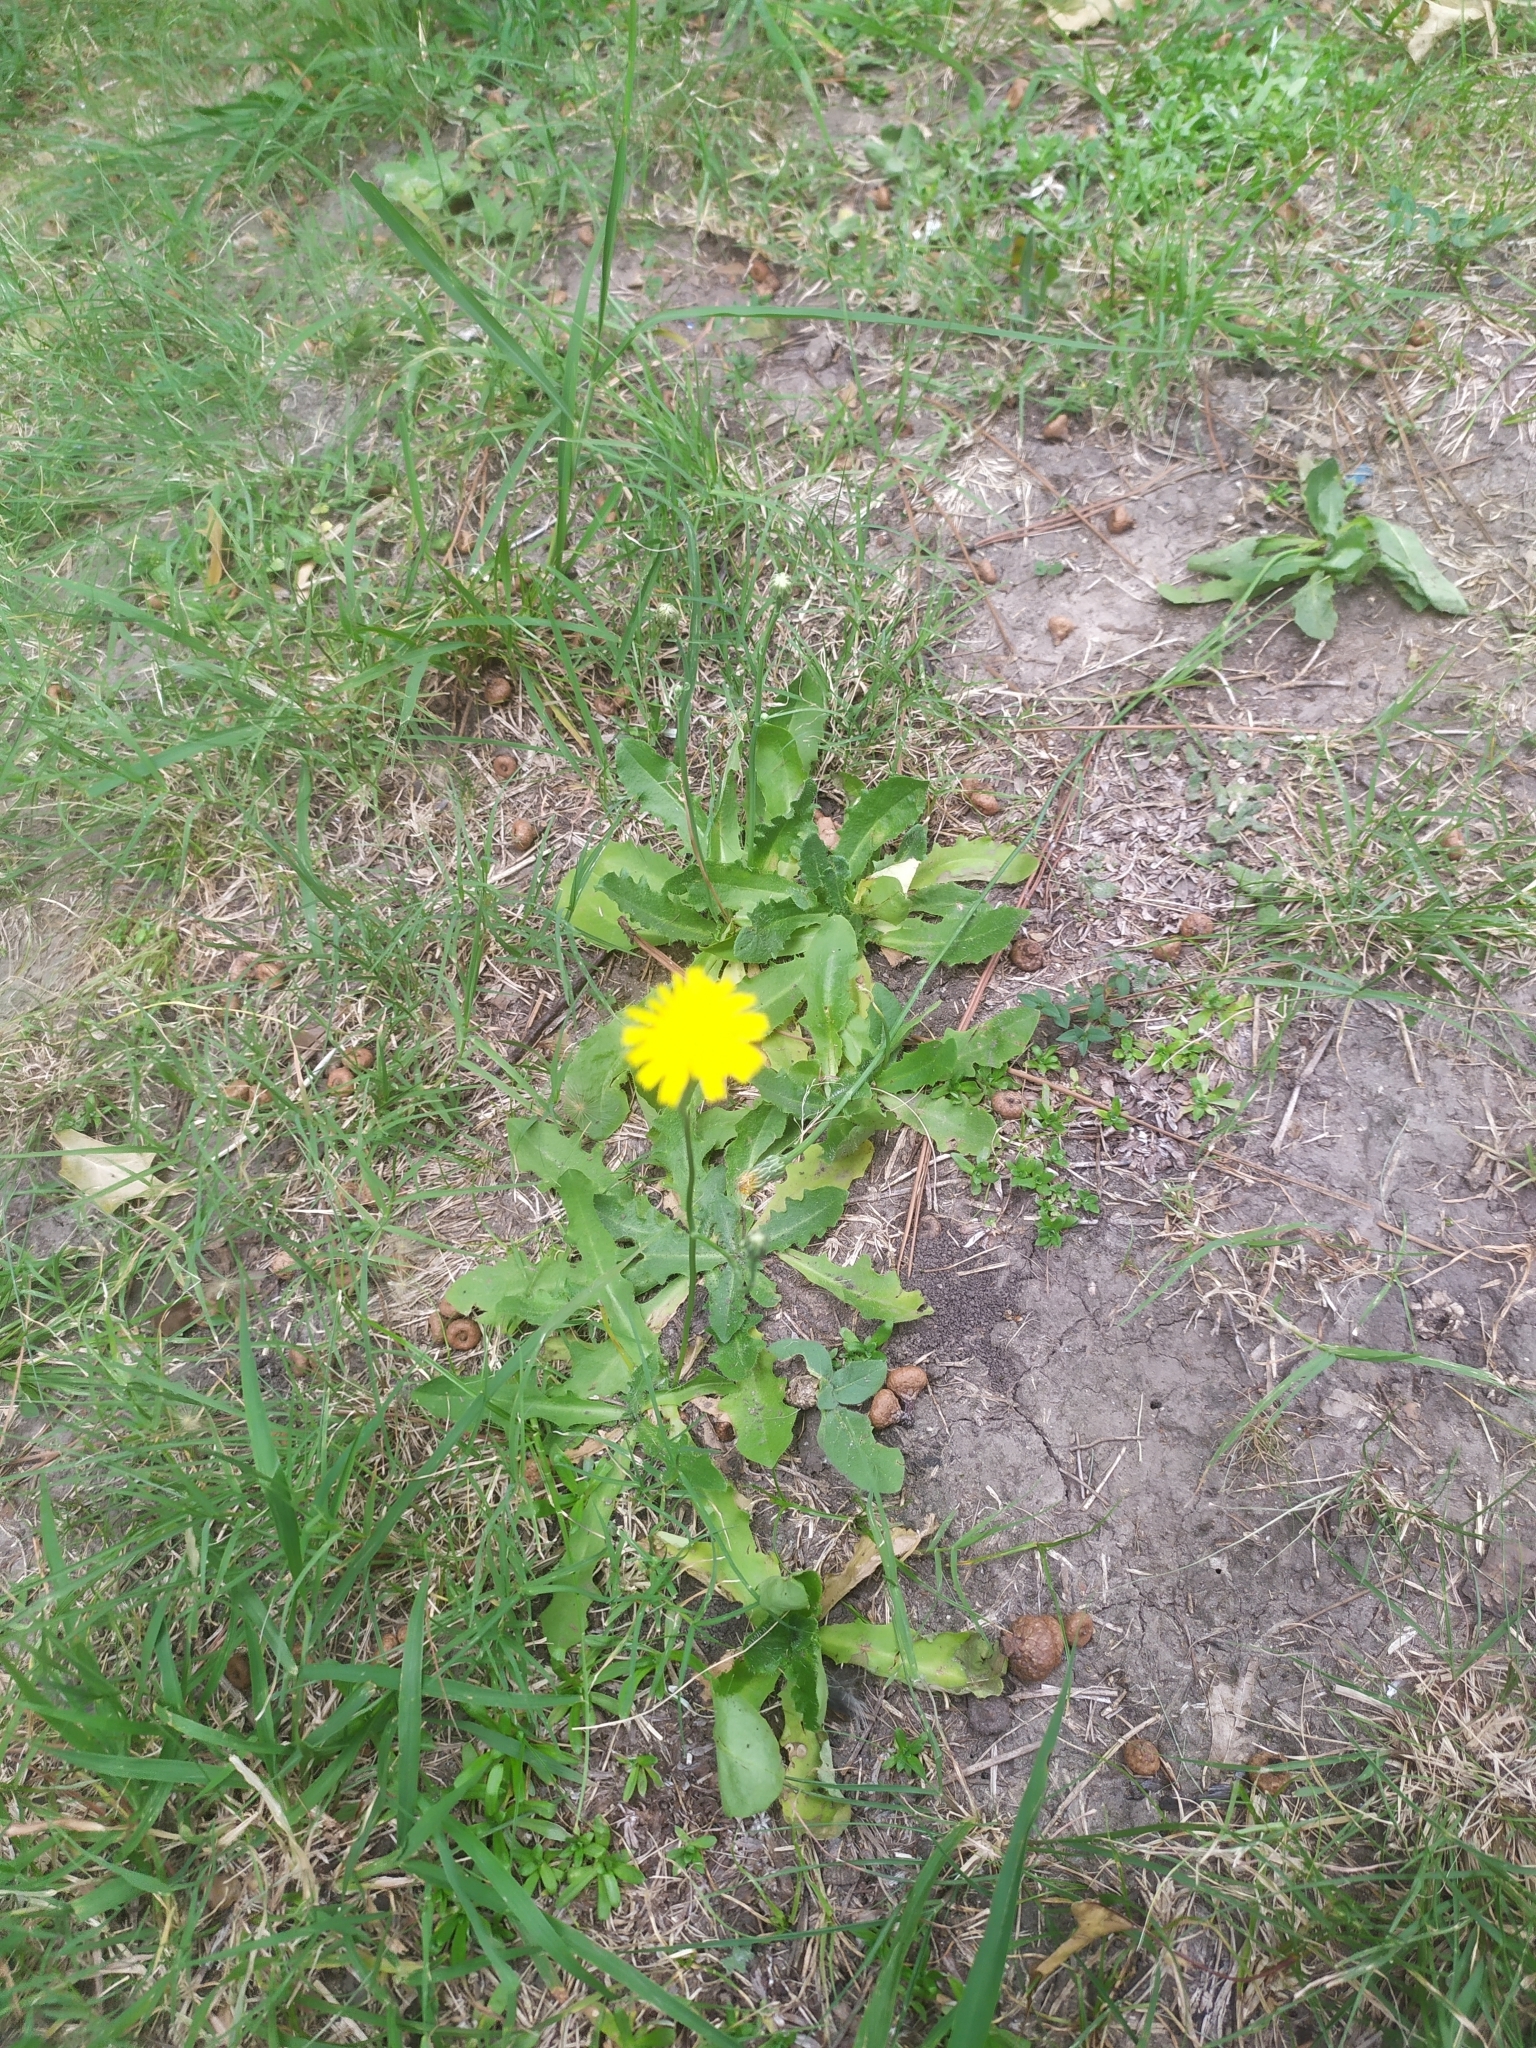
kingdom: Plantae
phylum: Tracheophyta
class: Magnoliopsida
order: Asterales
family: Asteraceae
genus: Hypochaeris
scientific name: Hypochaeris radicata
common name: Flatweed
